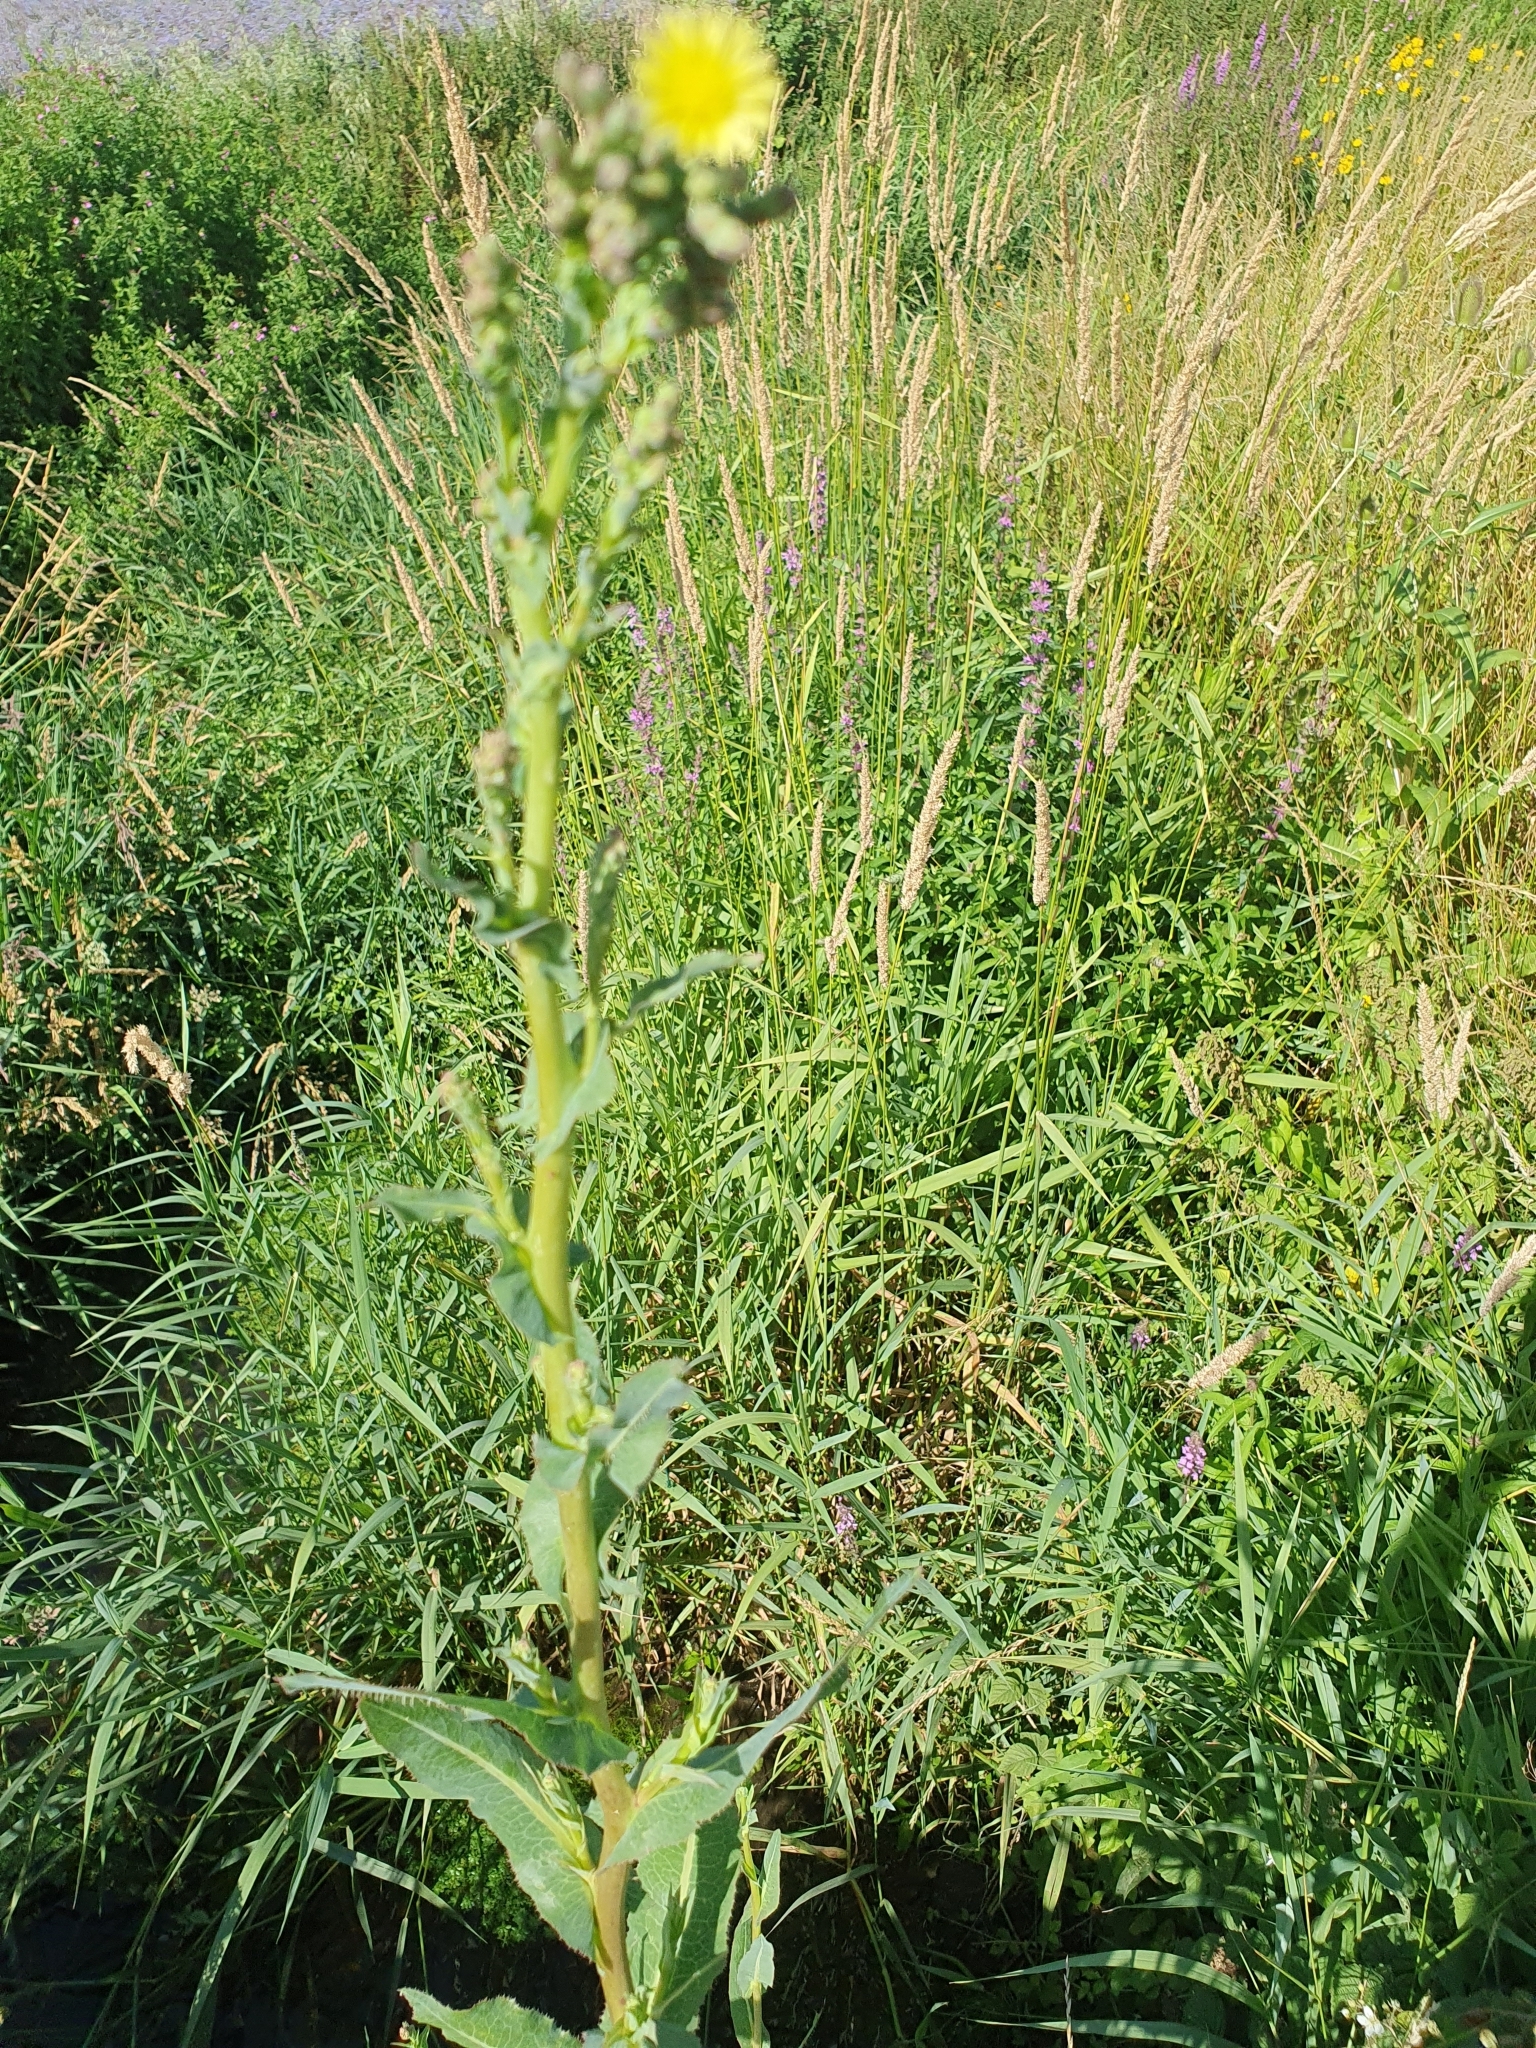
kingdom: Plantae
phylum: Tracheophyta
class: Magnoliopsida
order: Asterales
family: Asteraceae
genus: Lactuca
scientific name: Lactuca serriola
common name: Prickly lettuce
